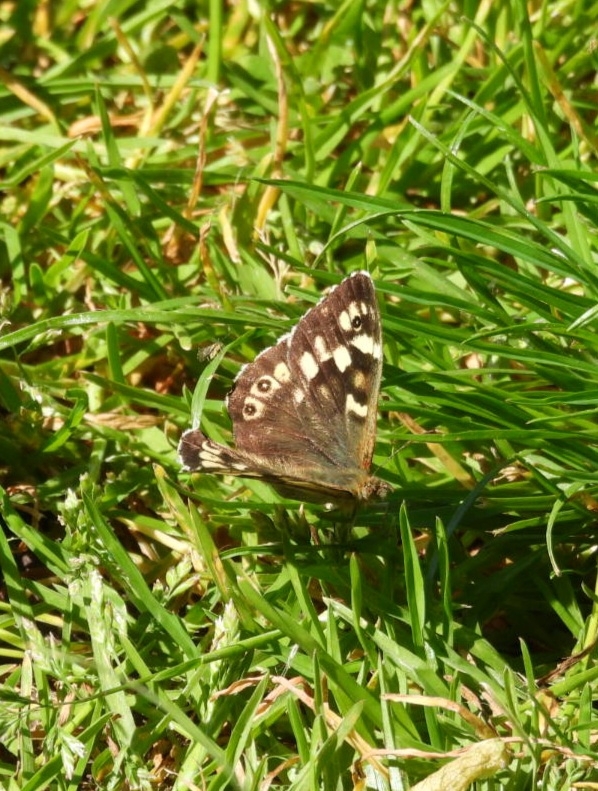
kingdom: Animalia
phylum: Arthropoda
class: Insecta
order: Lepidoptera
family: Nymphalidae
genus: Pararge
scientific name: Pararge aegeria
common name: Speckled wood
